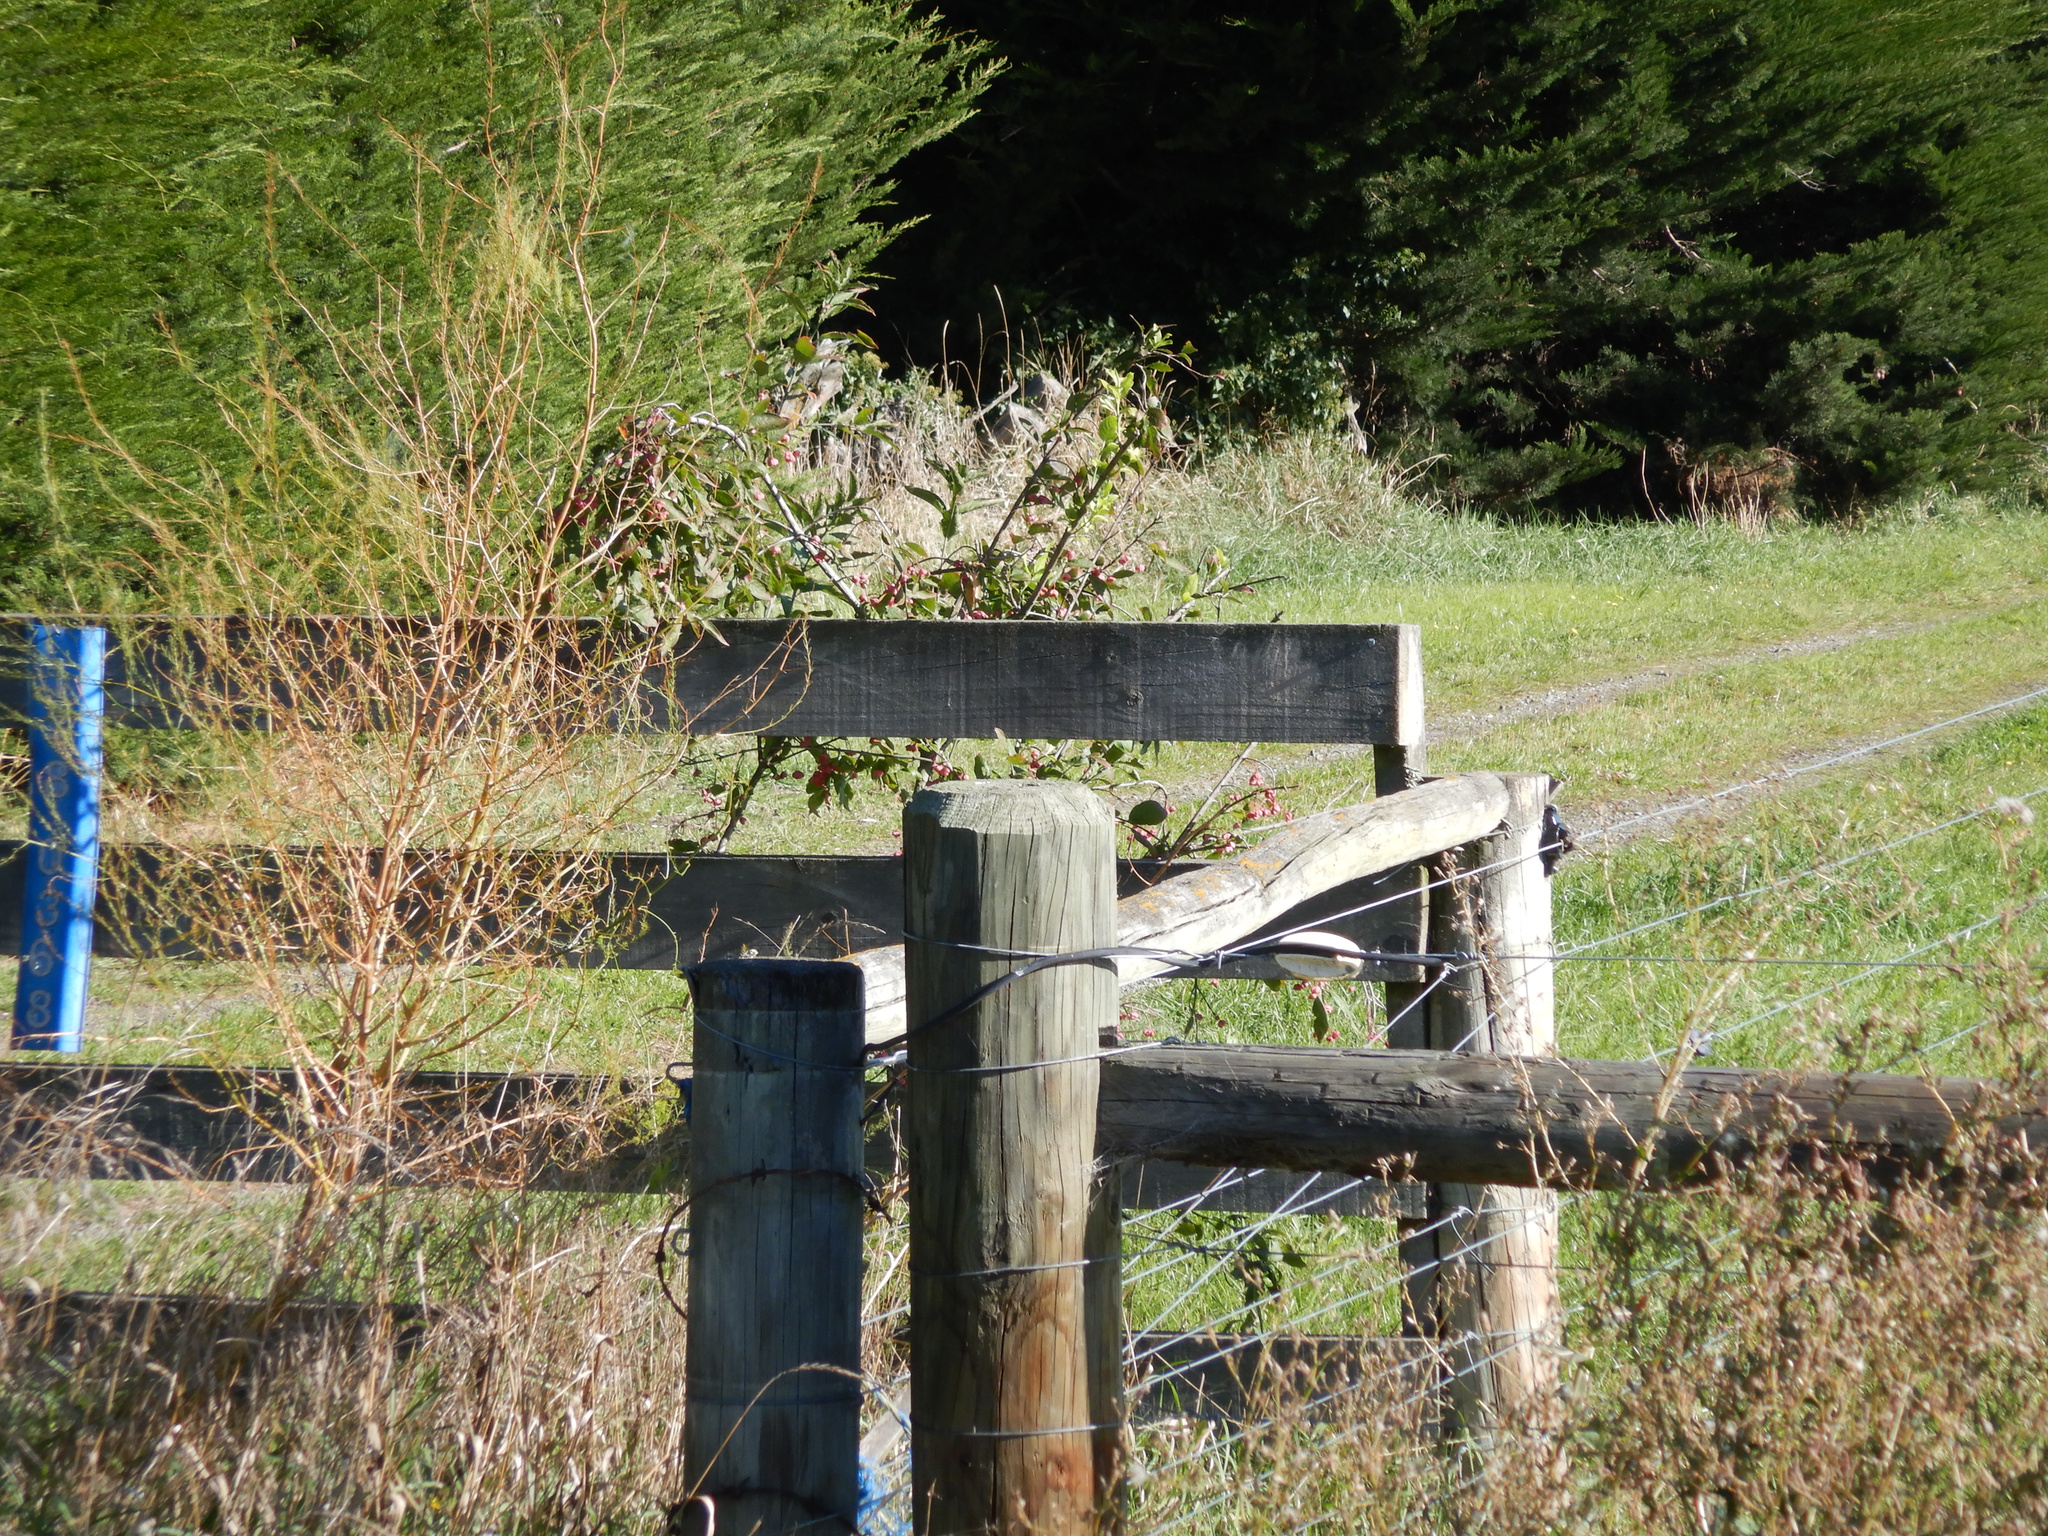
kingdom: Plantae
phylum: Tracheophyta
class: Magnoliopsida
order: Celastrales
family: Celastraceae
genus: Euonymus
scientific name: Euonymus europaeus
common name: Spindle
